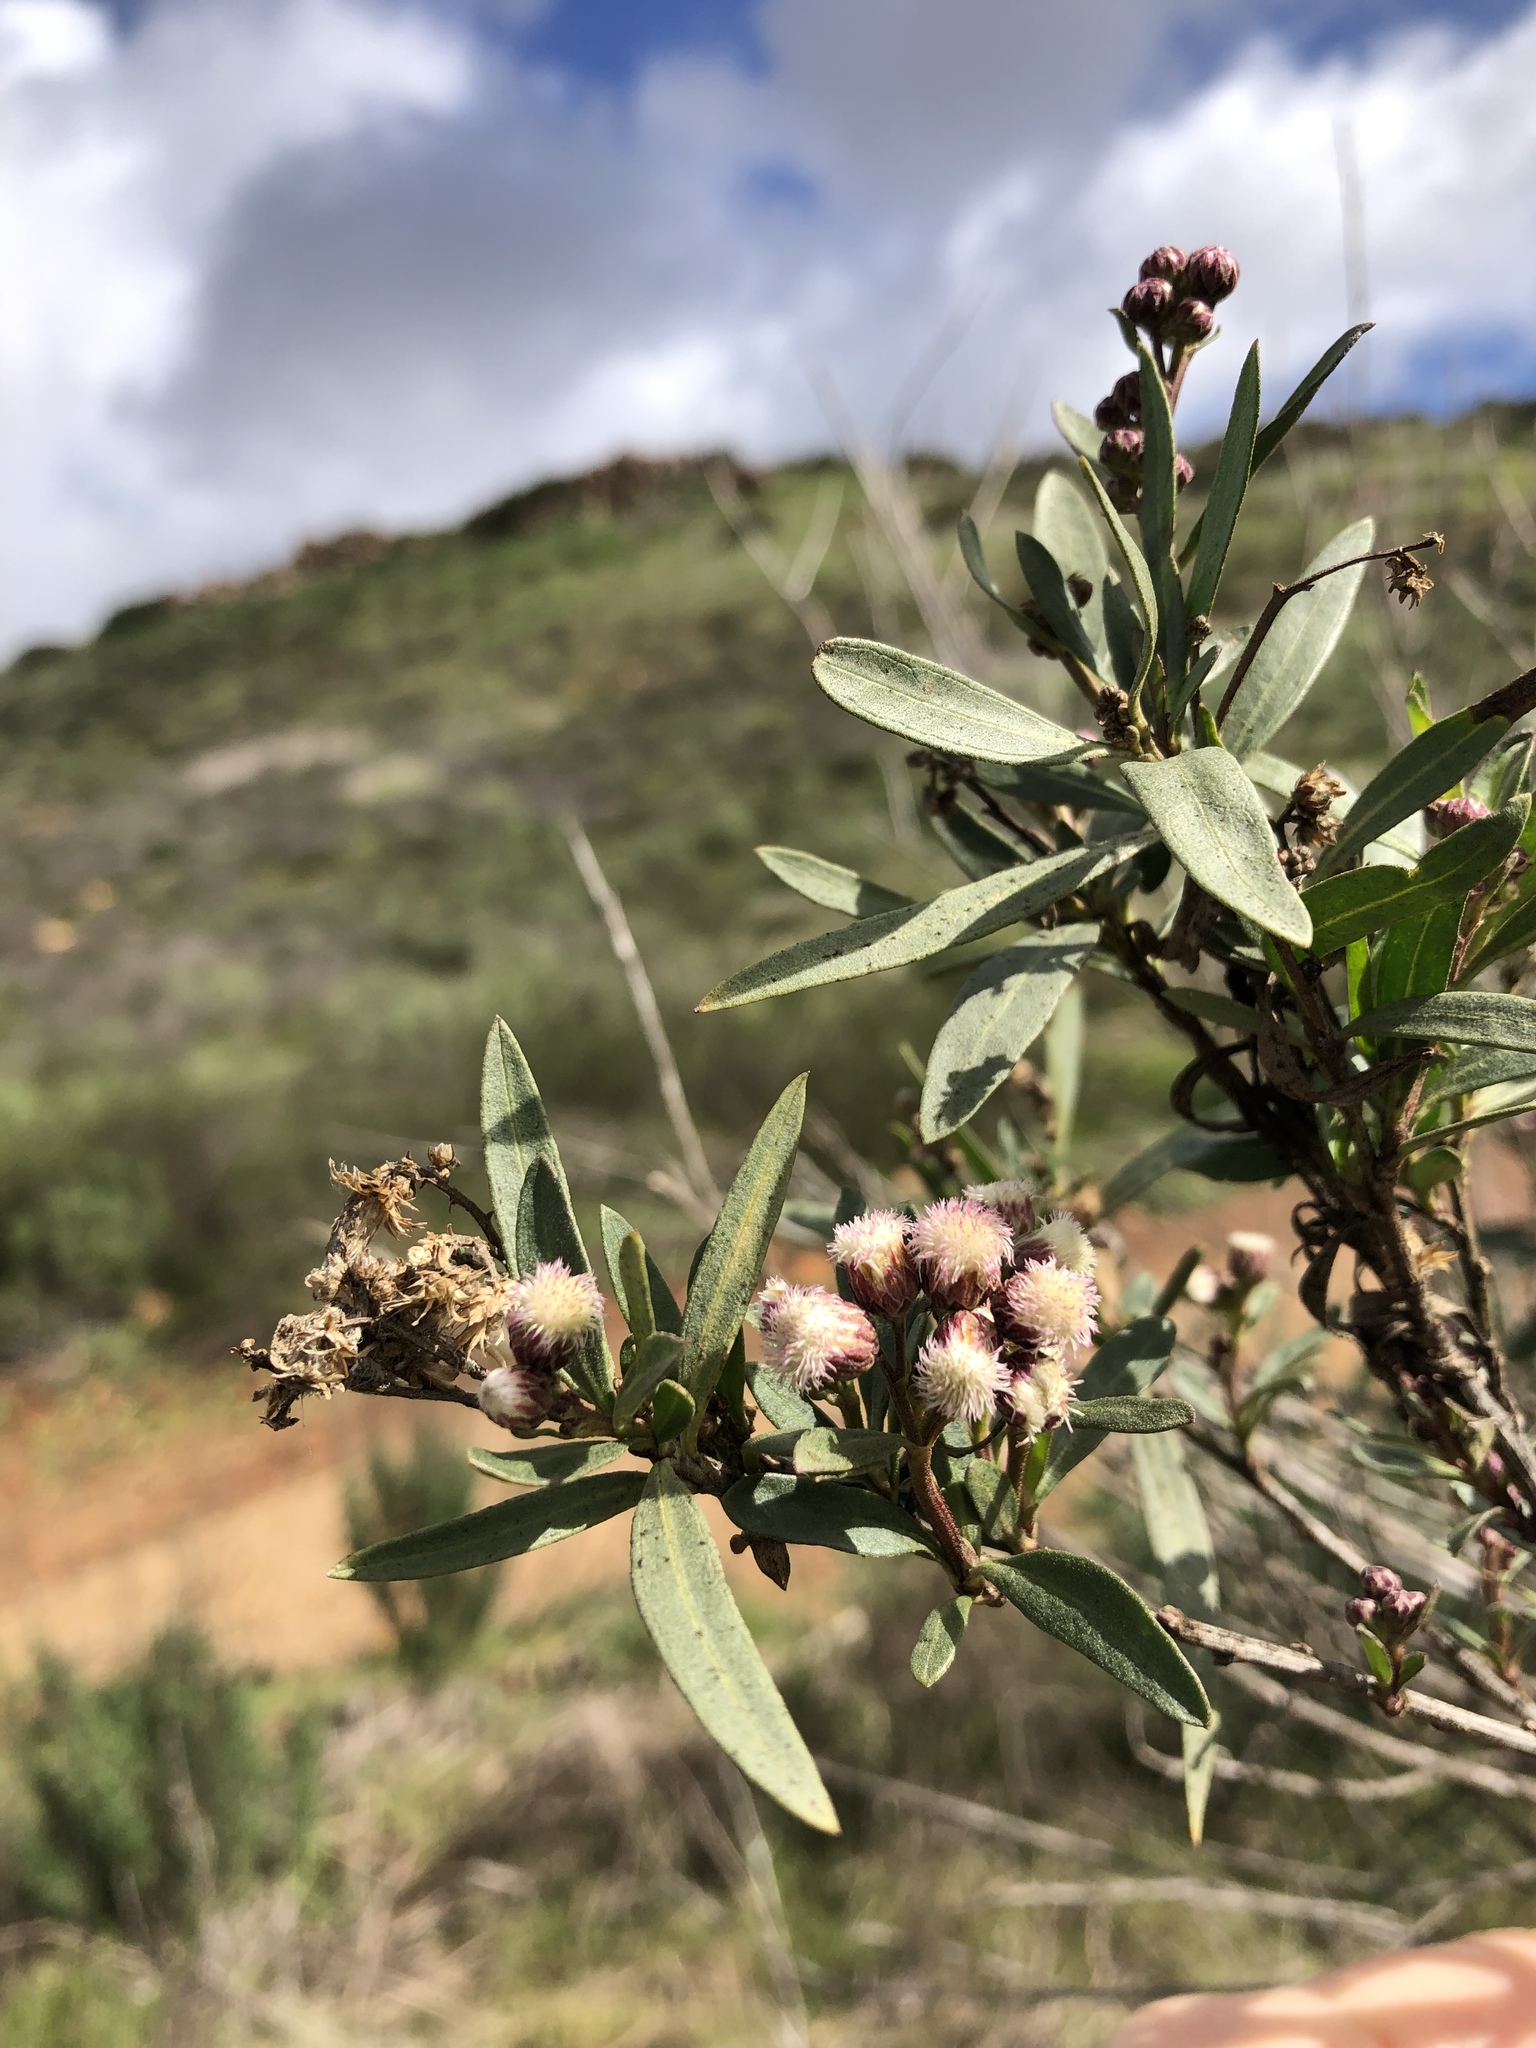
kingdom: Plantae
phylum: Tracheophyta
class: Magnoliopsida
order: Asterales
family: Asteraceae
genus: Baccharis
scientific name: Baccharis salicifolia
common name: Sticky baccharis
